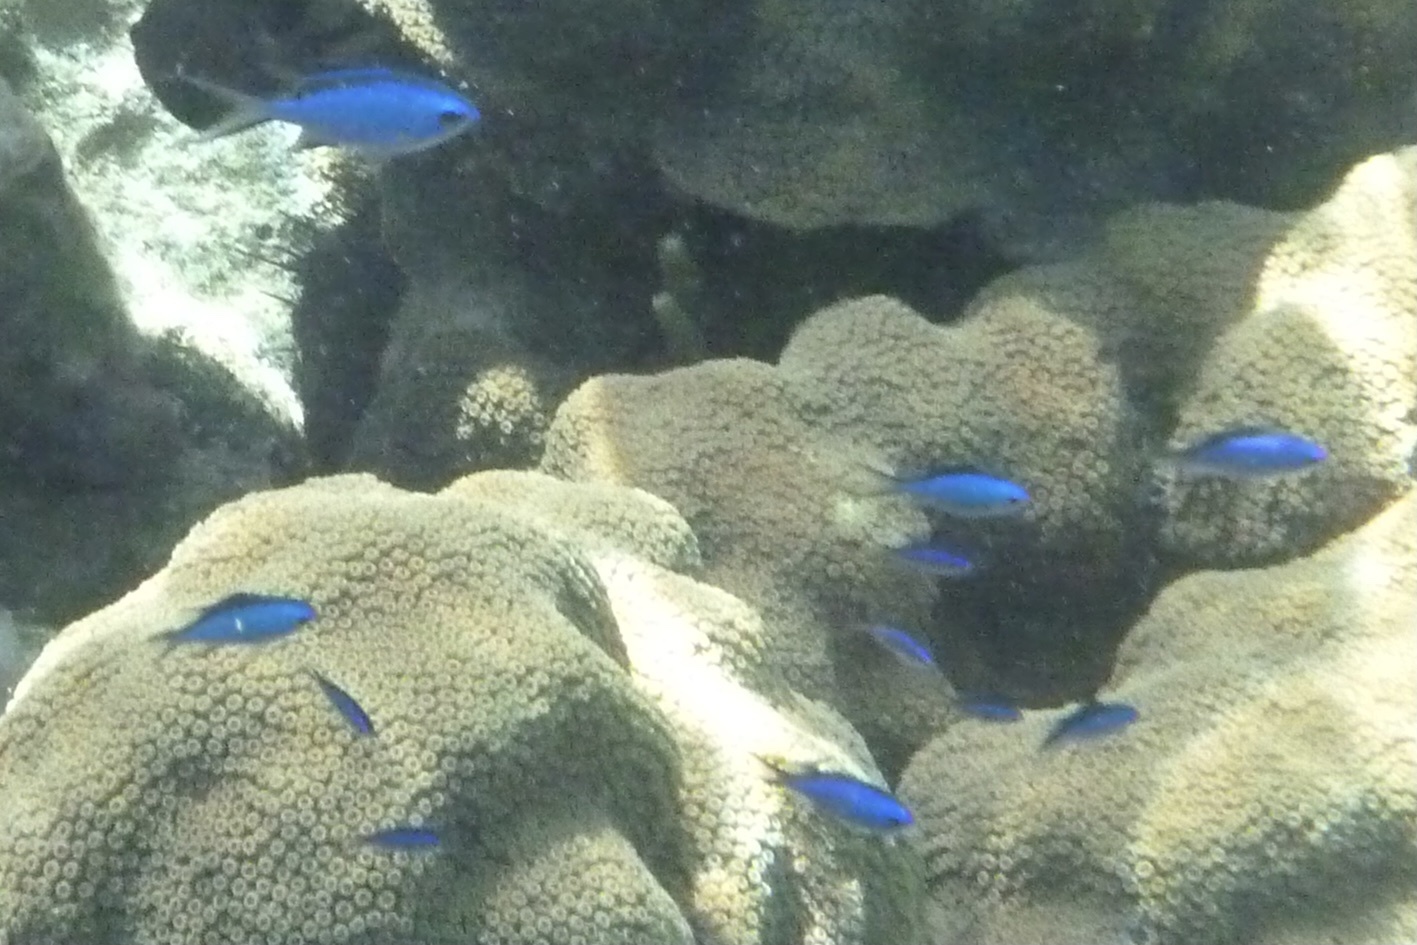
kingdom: Animalia
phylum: Chordata
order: Perciformes
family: Pomacentridae
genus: Chromis
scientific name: Chromis cyanea
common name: Blue chromis
